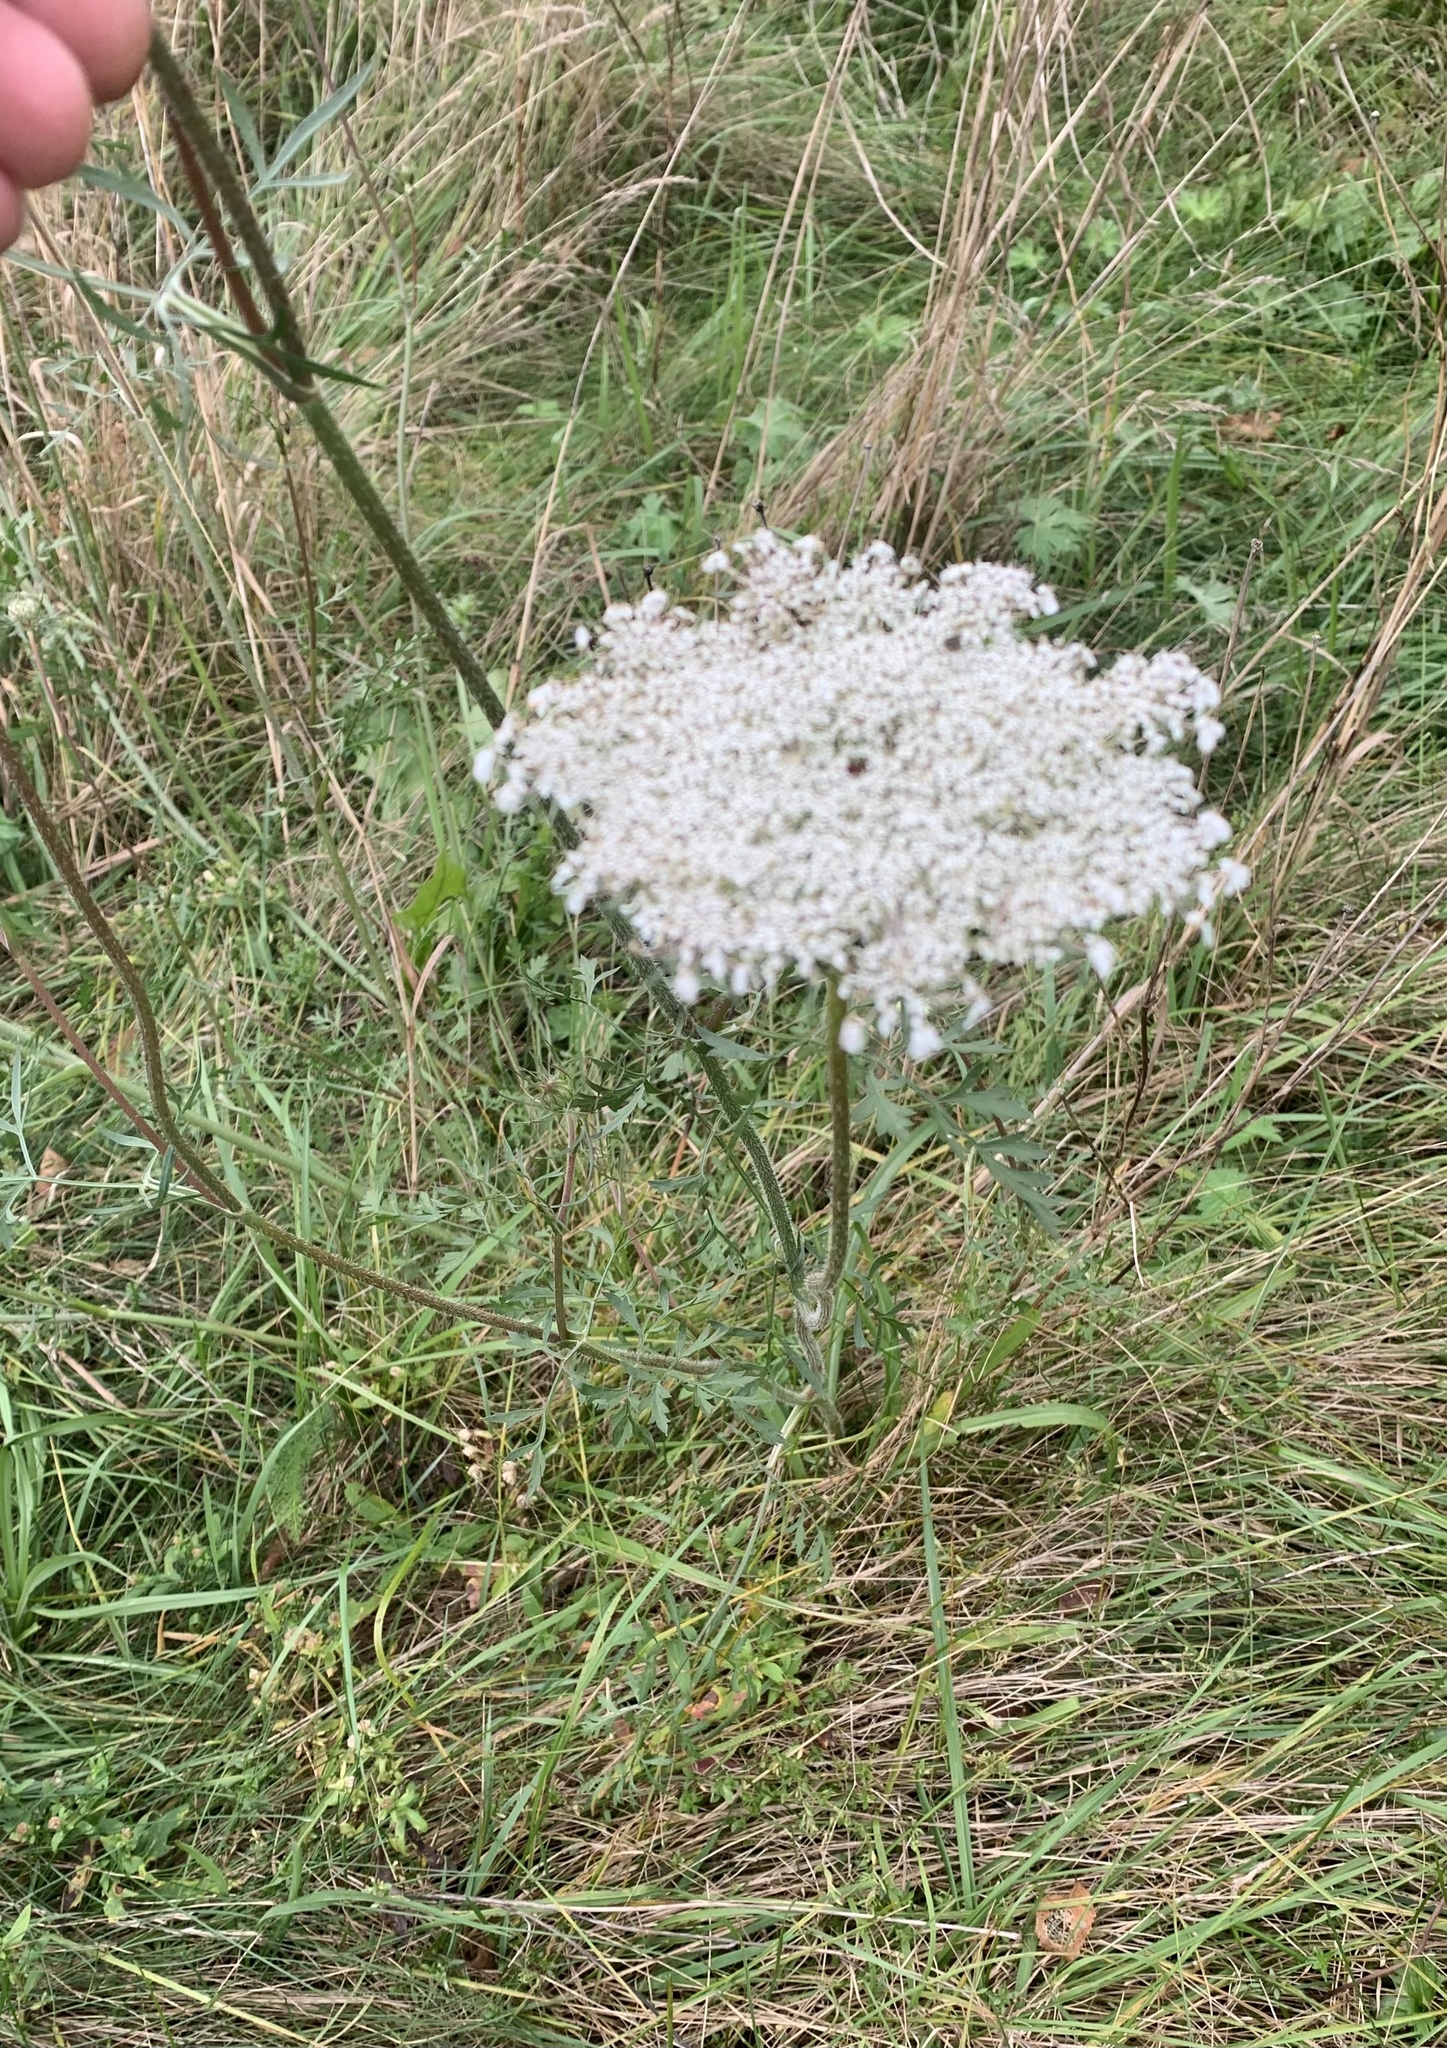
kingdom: Plantae
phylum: Tracheophyta
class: Magnoliopsida
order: Apiales
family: Apiaceae
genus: Daucus
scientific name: Daucus carota
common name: Wild carrot
